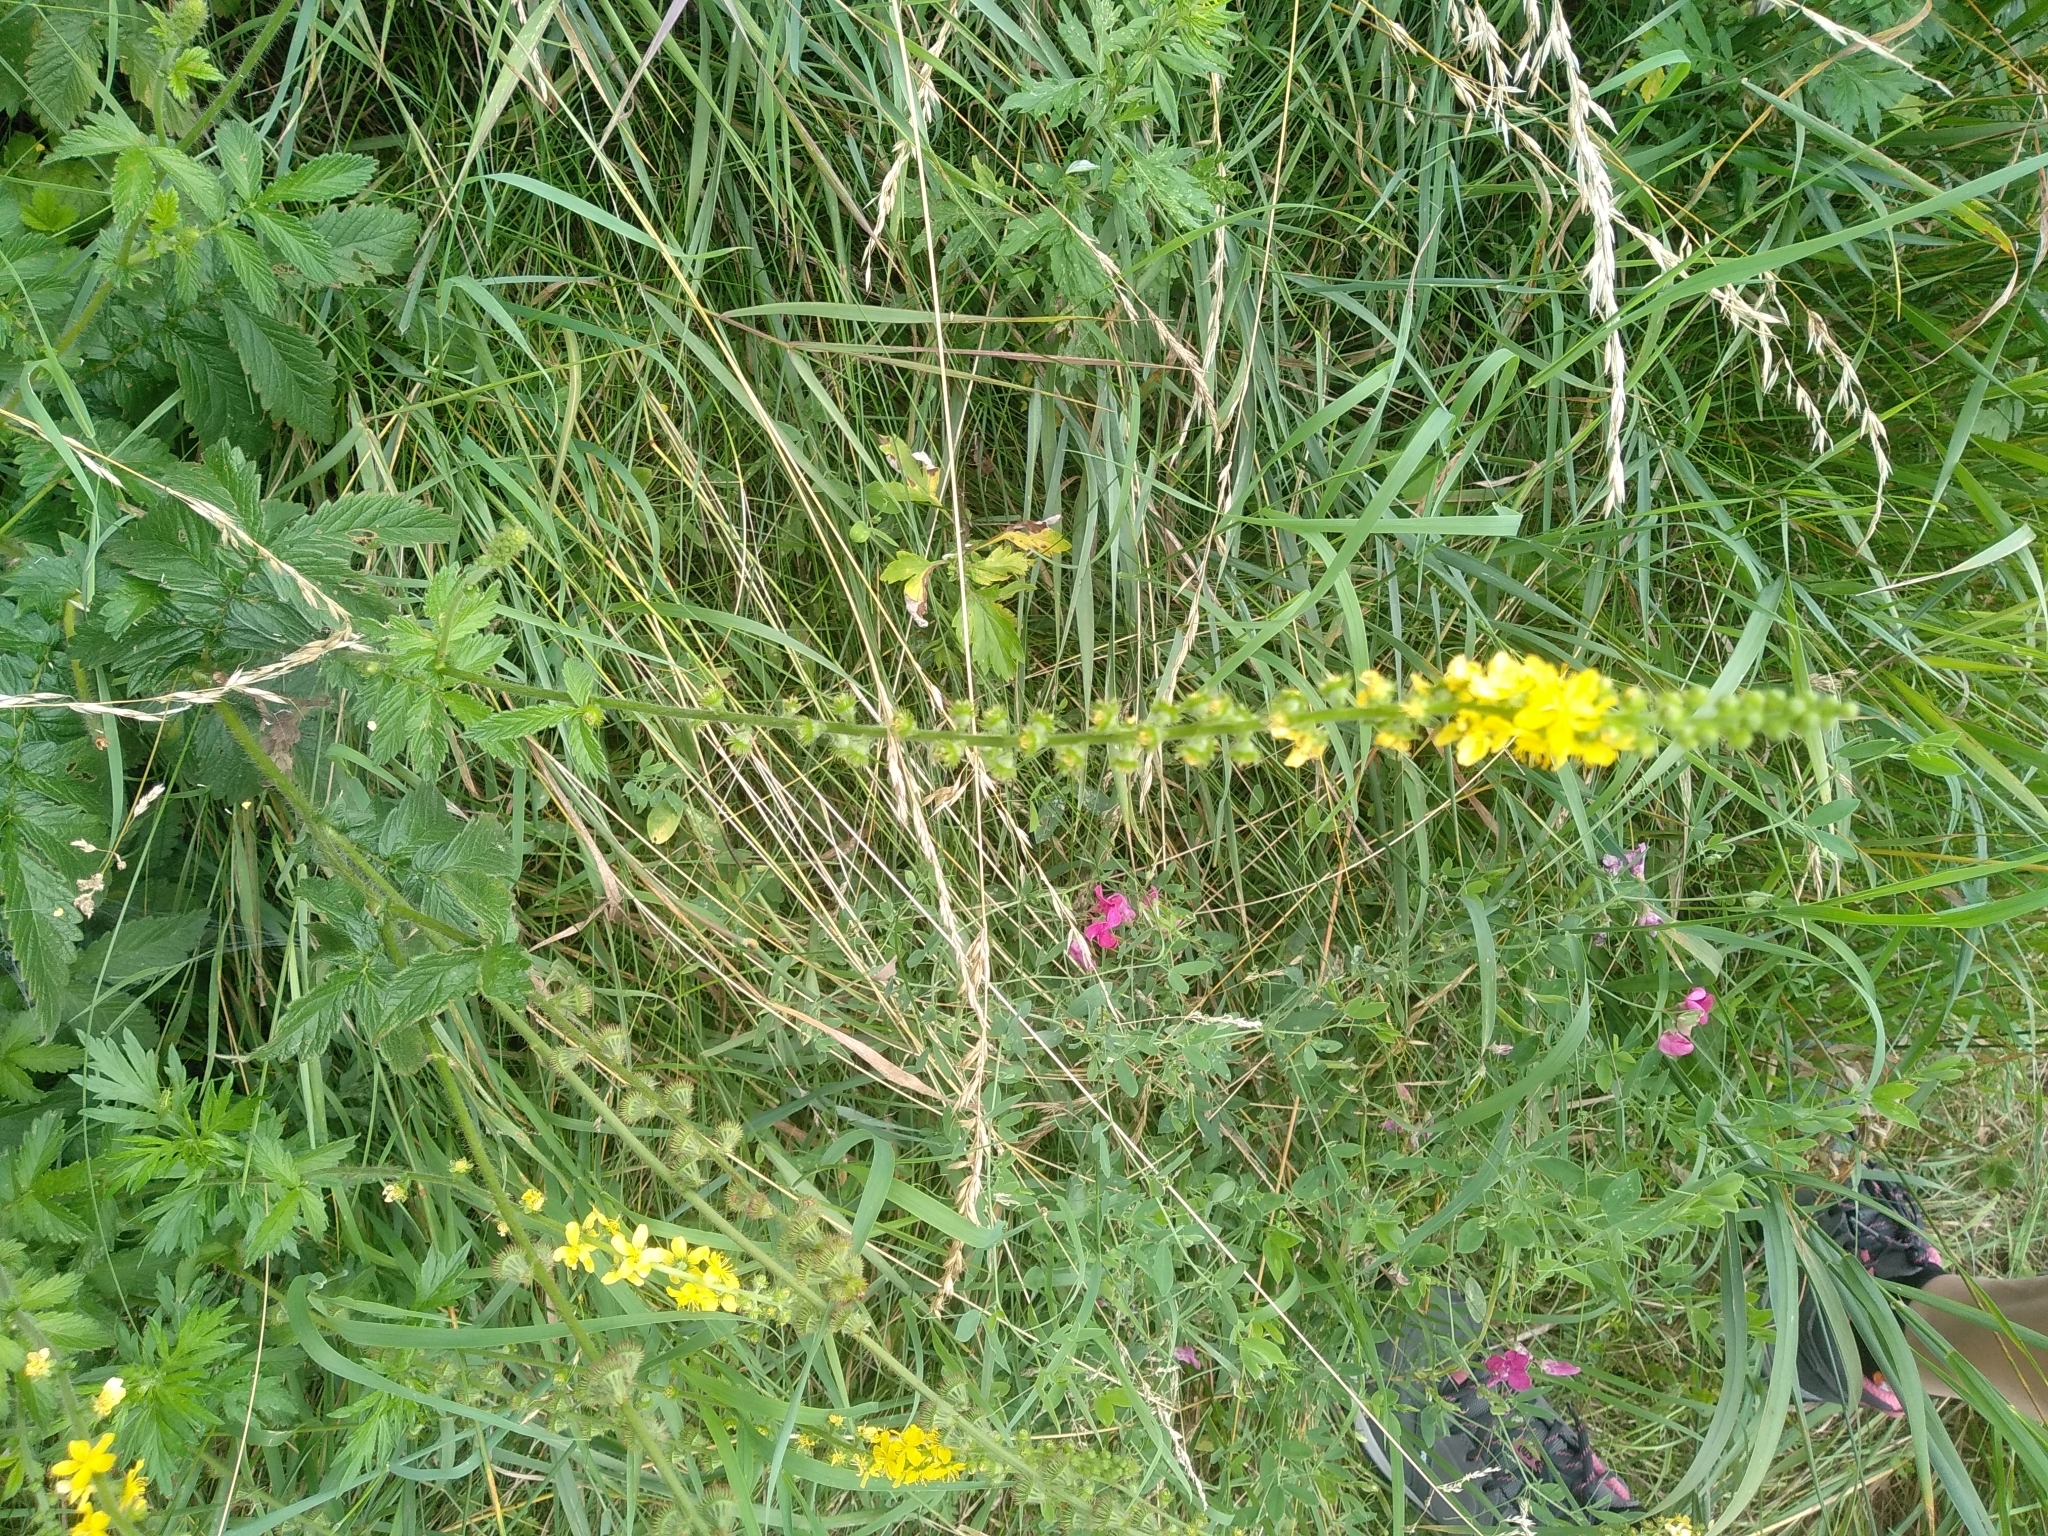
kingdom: Plantae
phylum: Tracheophyta
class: Magnoliopsida
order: Rosales
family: Rosaceae
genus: Agrimonia
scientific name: Agrimonia eupatoria
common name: Agrimony
